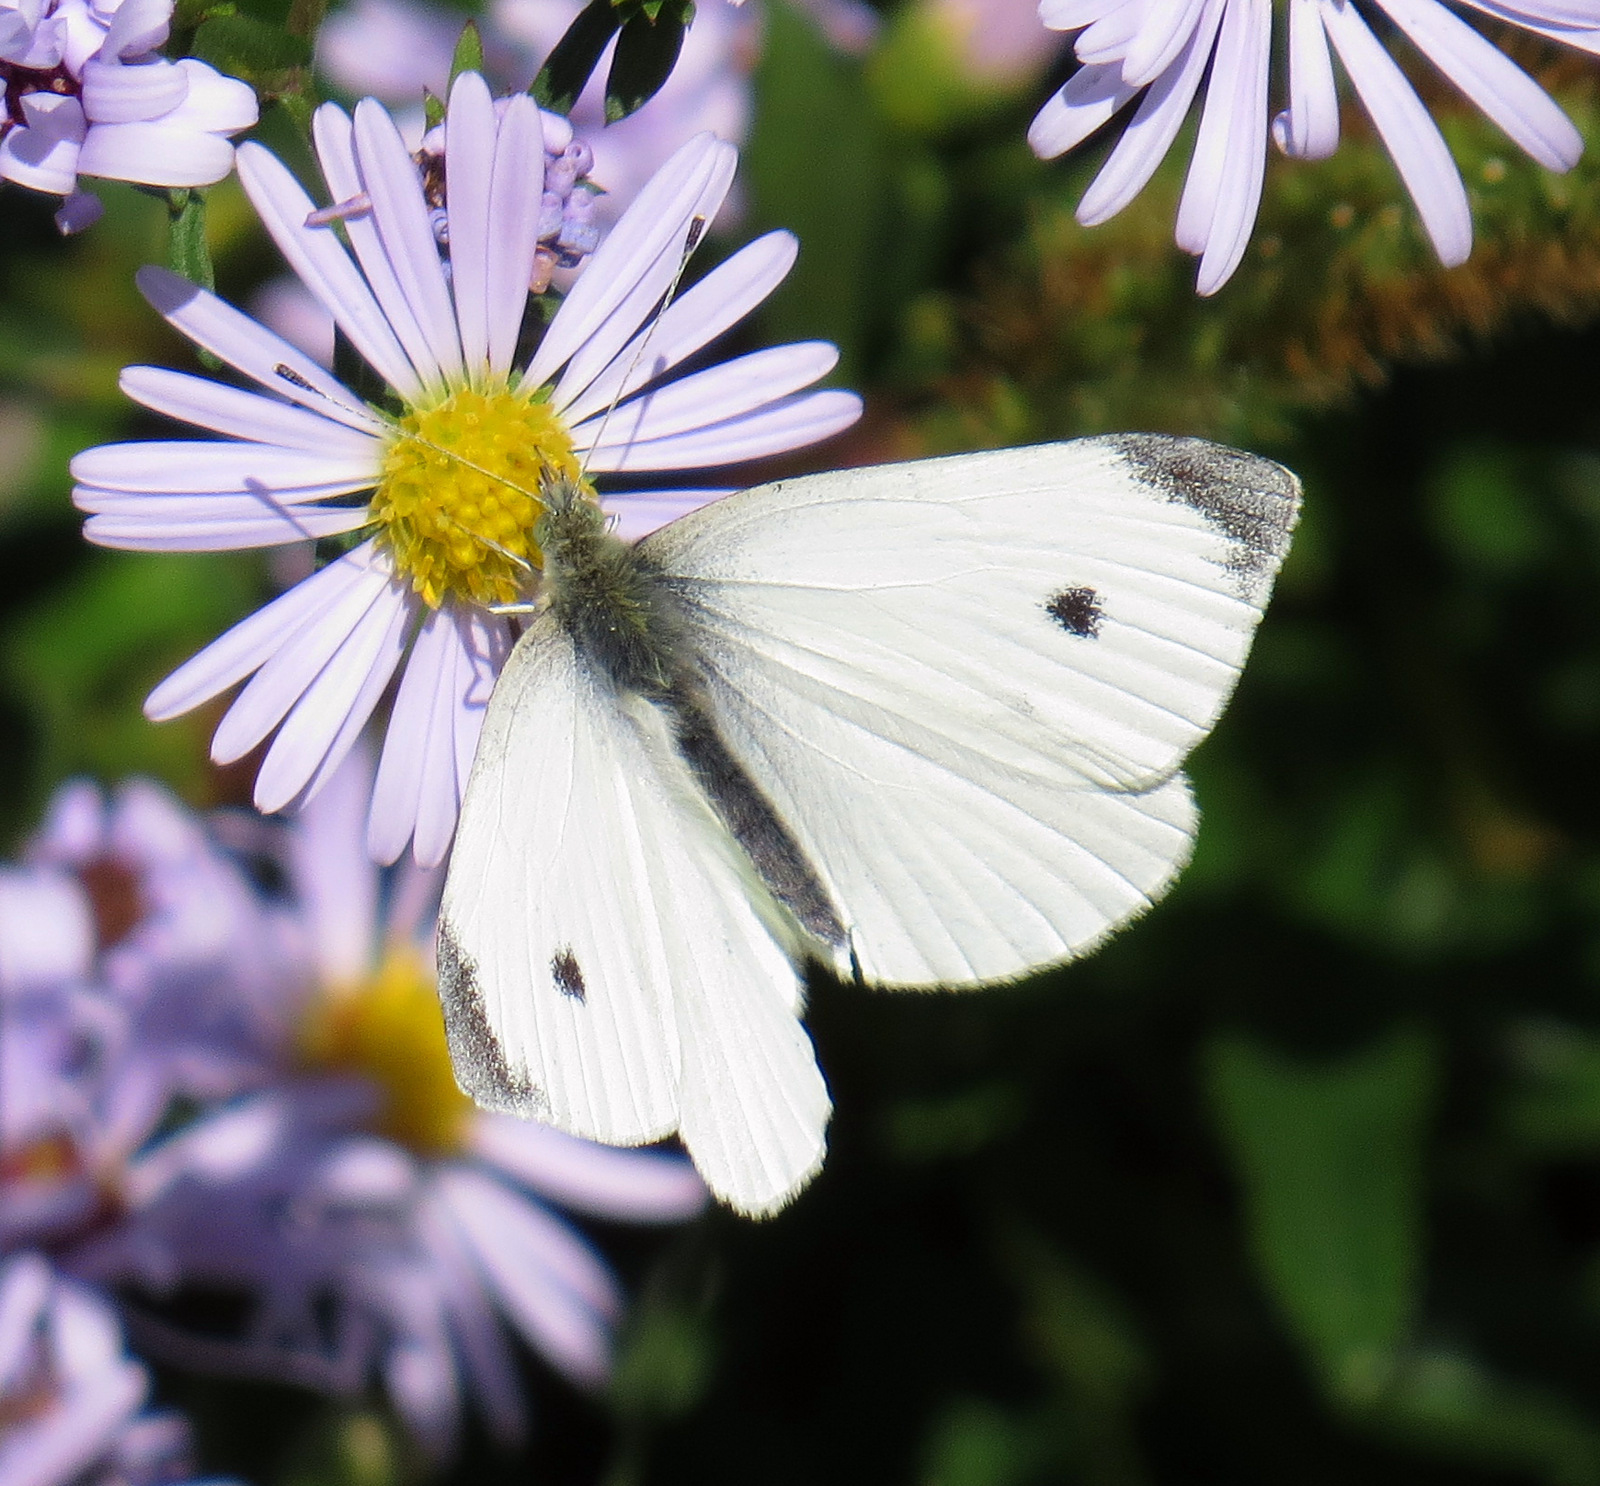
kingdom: Animalia
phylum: Arthropoda
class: Insecta
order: Lepidoptera
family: Pieridae
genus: Pieris
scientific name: Pieris rapae
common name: Small white
